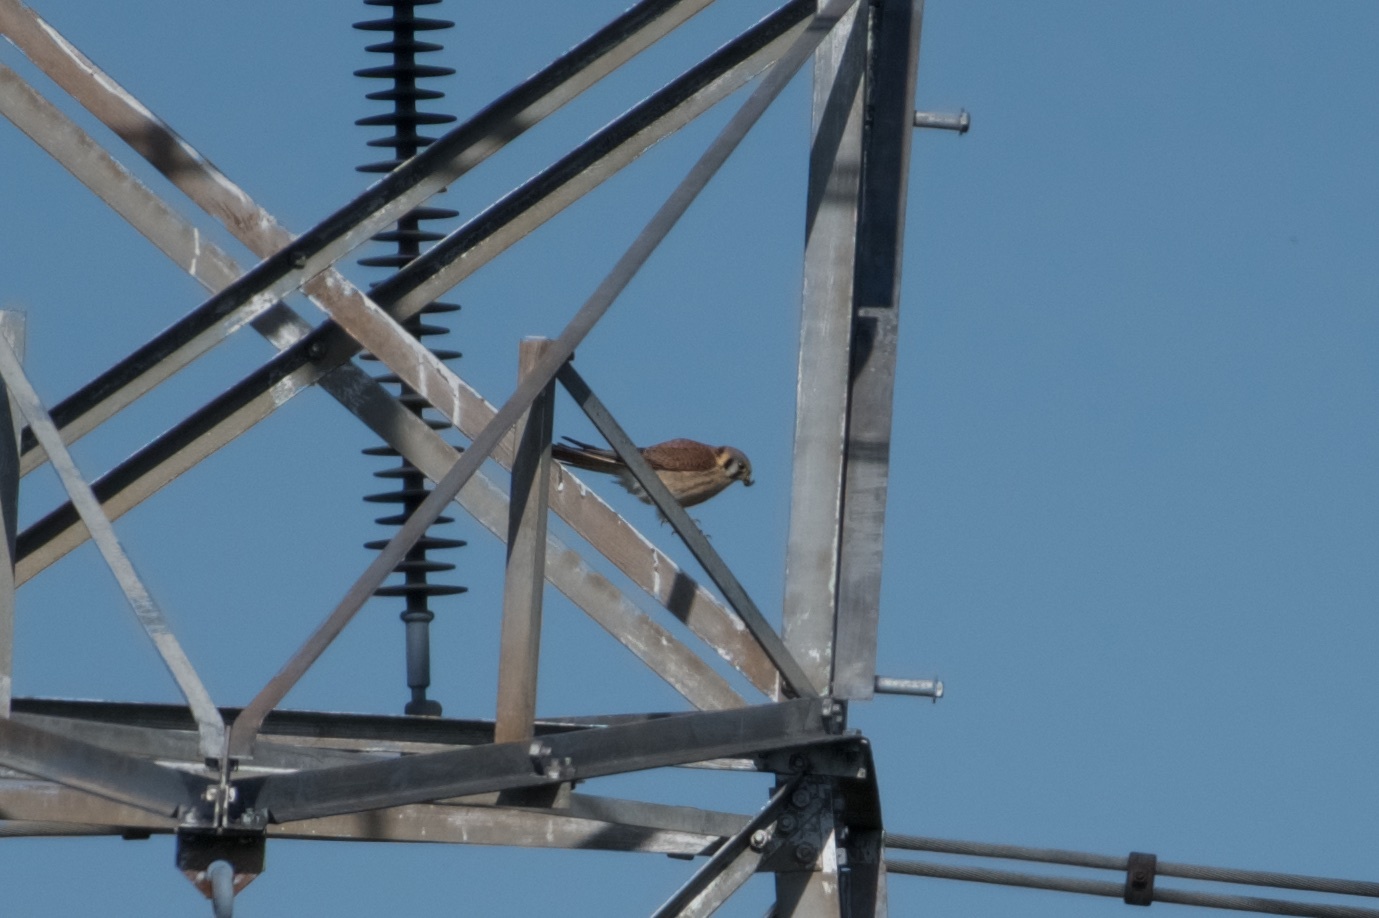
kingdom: Animalia
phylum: Chordata
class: Aves
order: Falconiformes
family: Falconidae
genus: Falco
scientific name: Falco sparverius
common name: American kestrel
